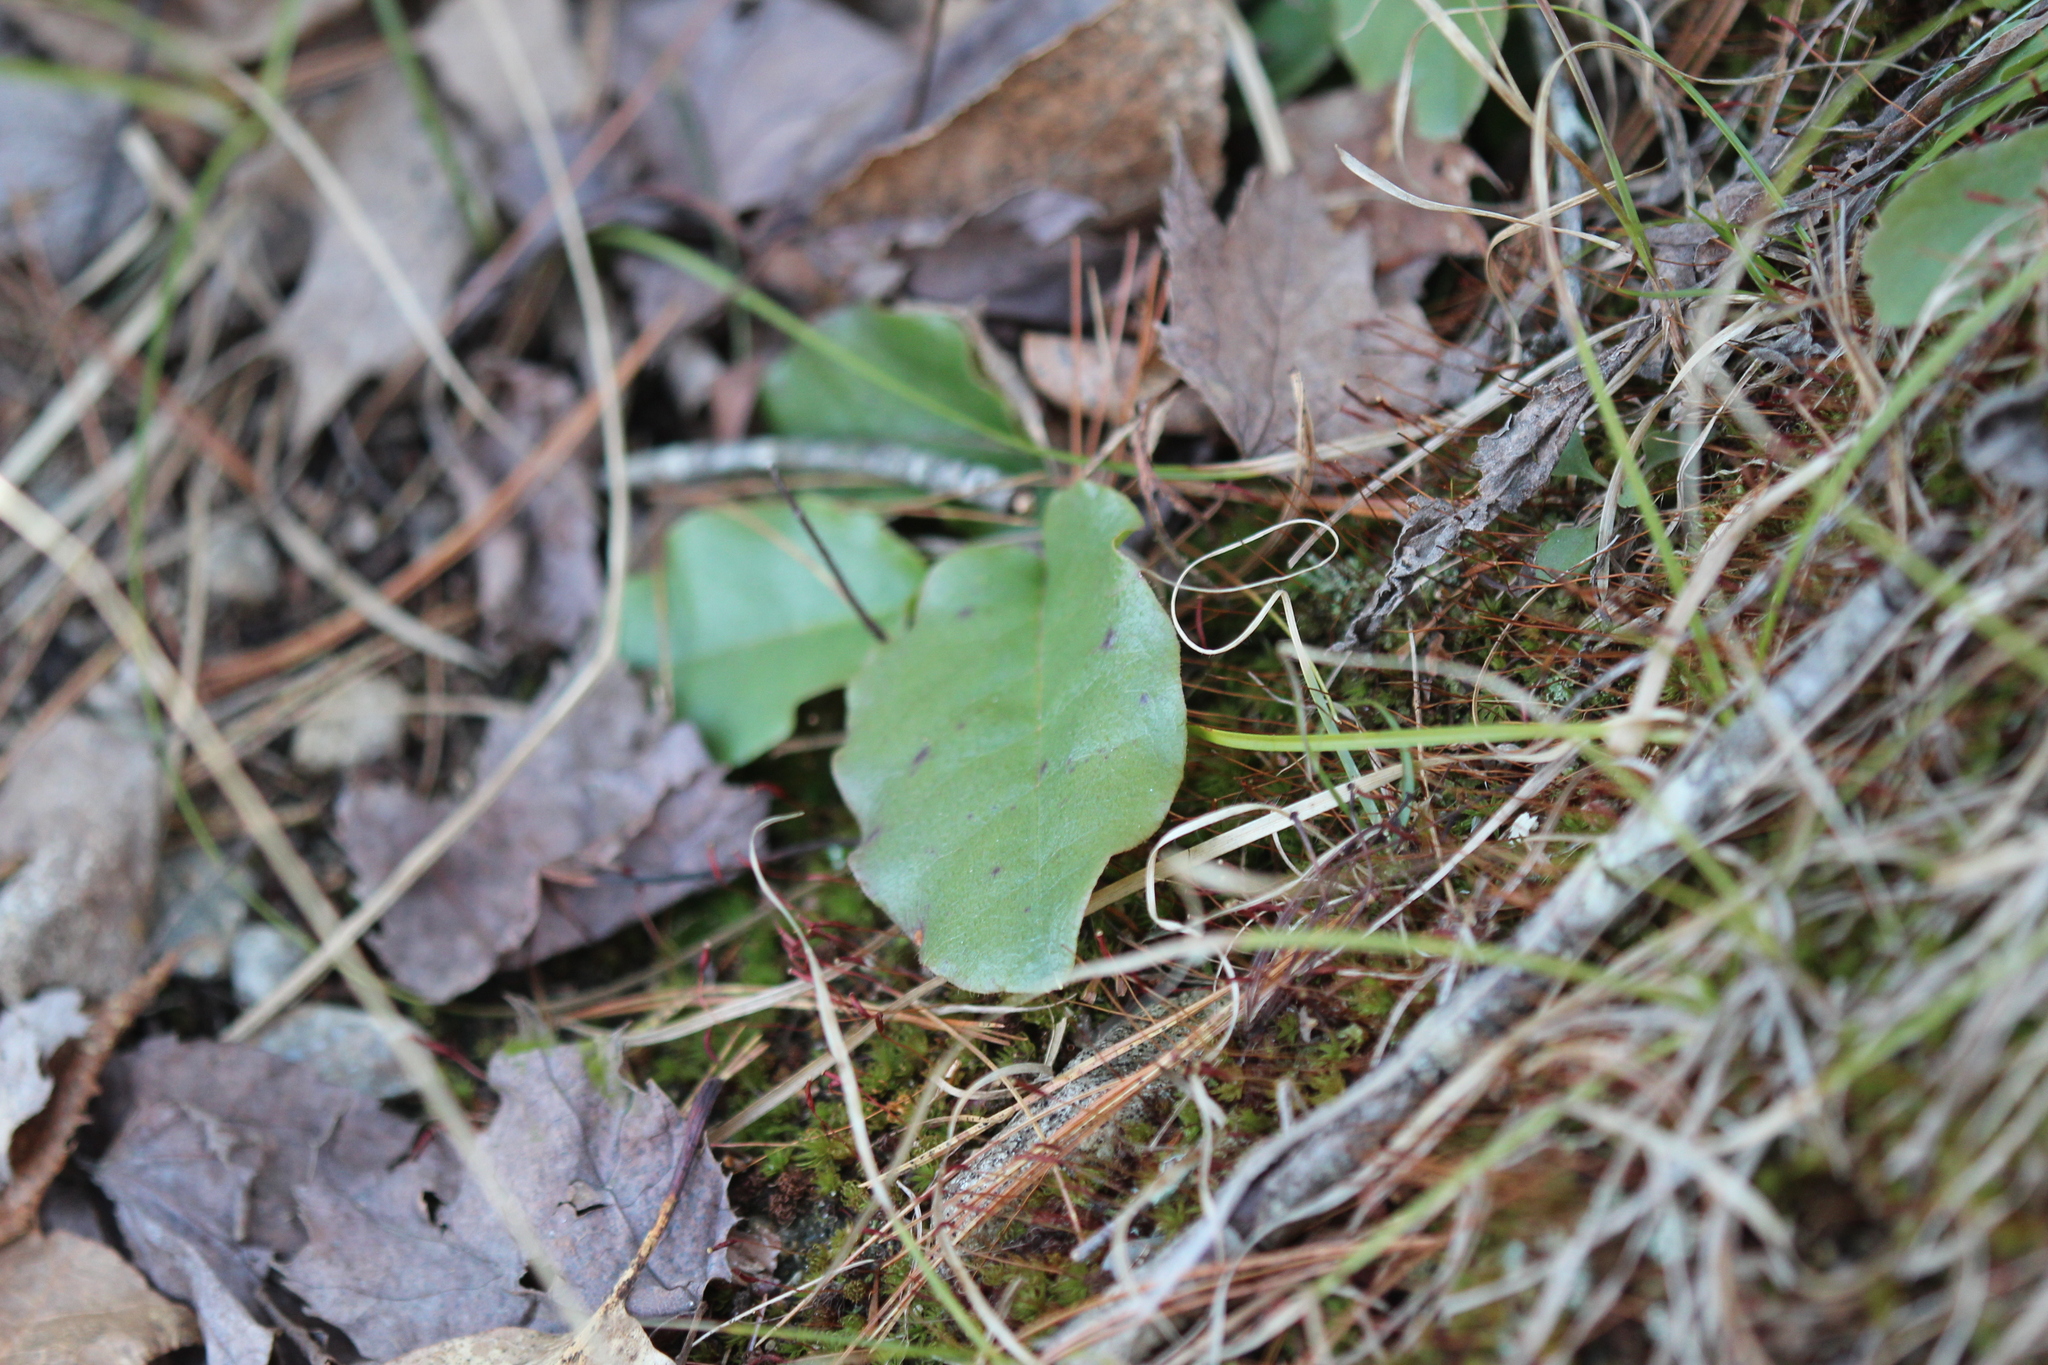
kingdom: Plantae
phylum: Tracheophyta
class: Magnoliopsida
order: Ericales
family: Ericaceae
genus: Epigaea
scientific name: Epigaea repens
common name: Gravelroot
